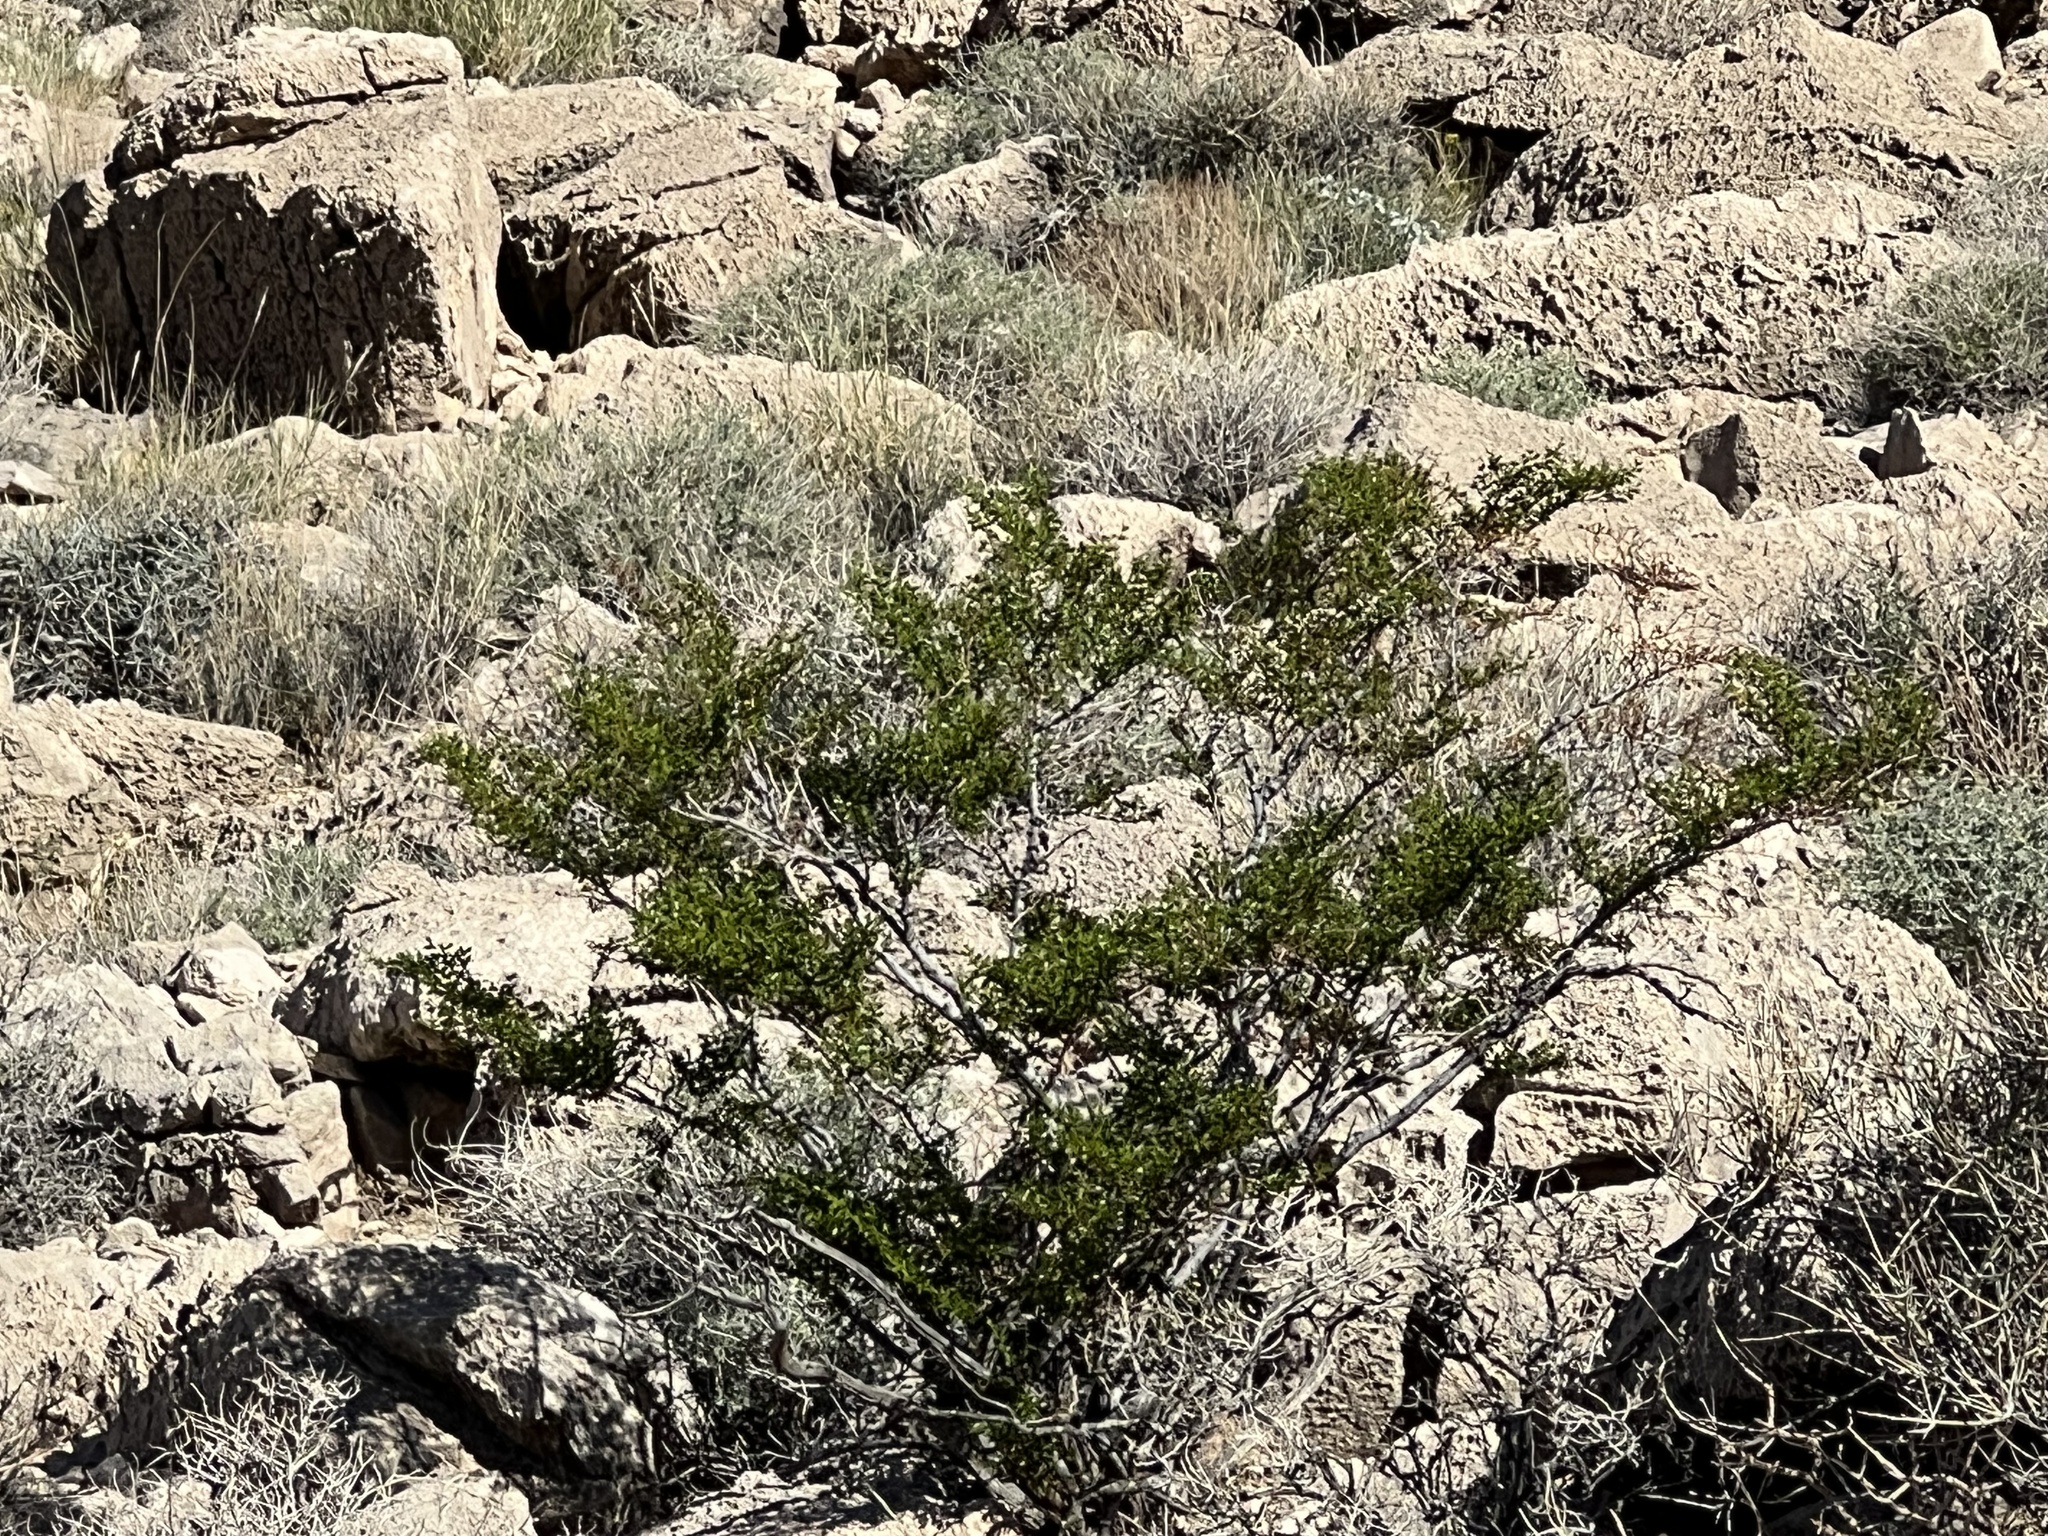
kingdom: Plantae
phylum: Tracheophyta
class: Magnoliopsida
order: Zygophyllales
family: Zygophyllaceae
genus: Larrea
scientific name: Larrea tridentata
